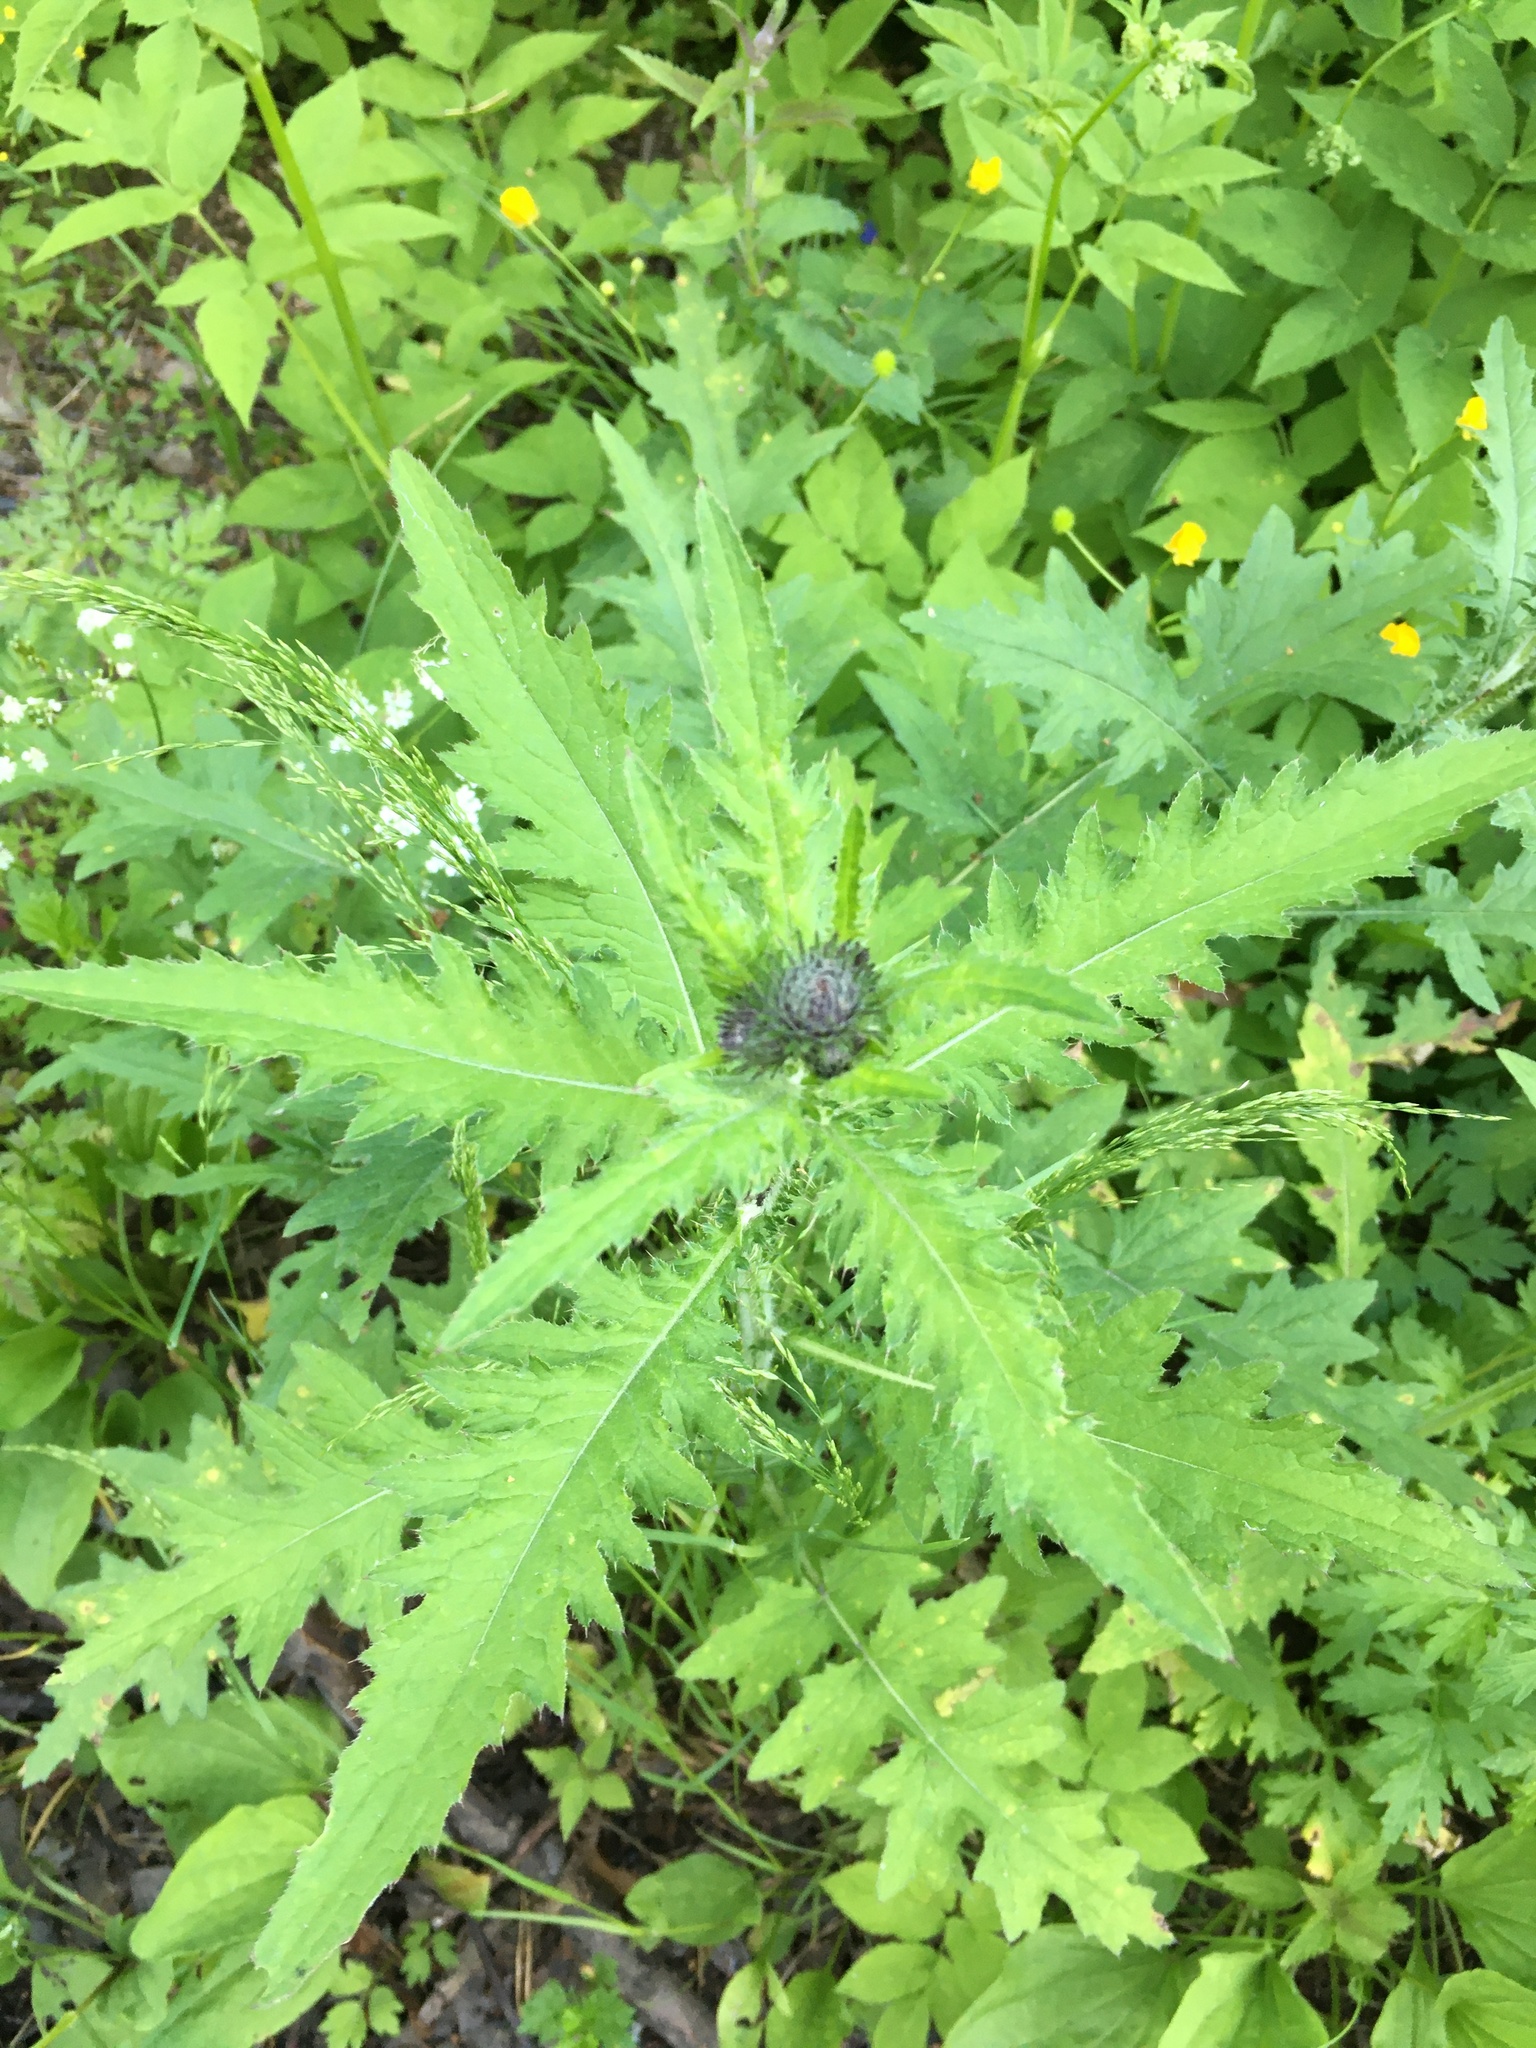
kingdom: Plantae
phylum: Tracheophyta
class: Magnoliopsida
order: Asterales
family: Asteraceae
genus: Carduus
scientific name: Carduus crispus
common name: Welted thistle
